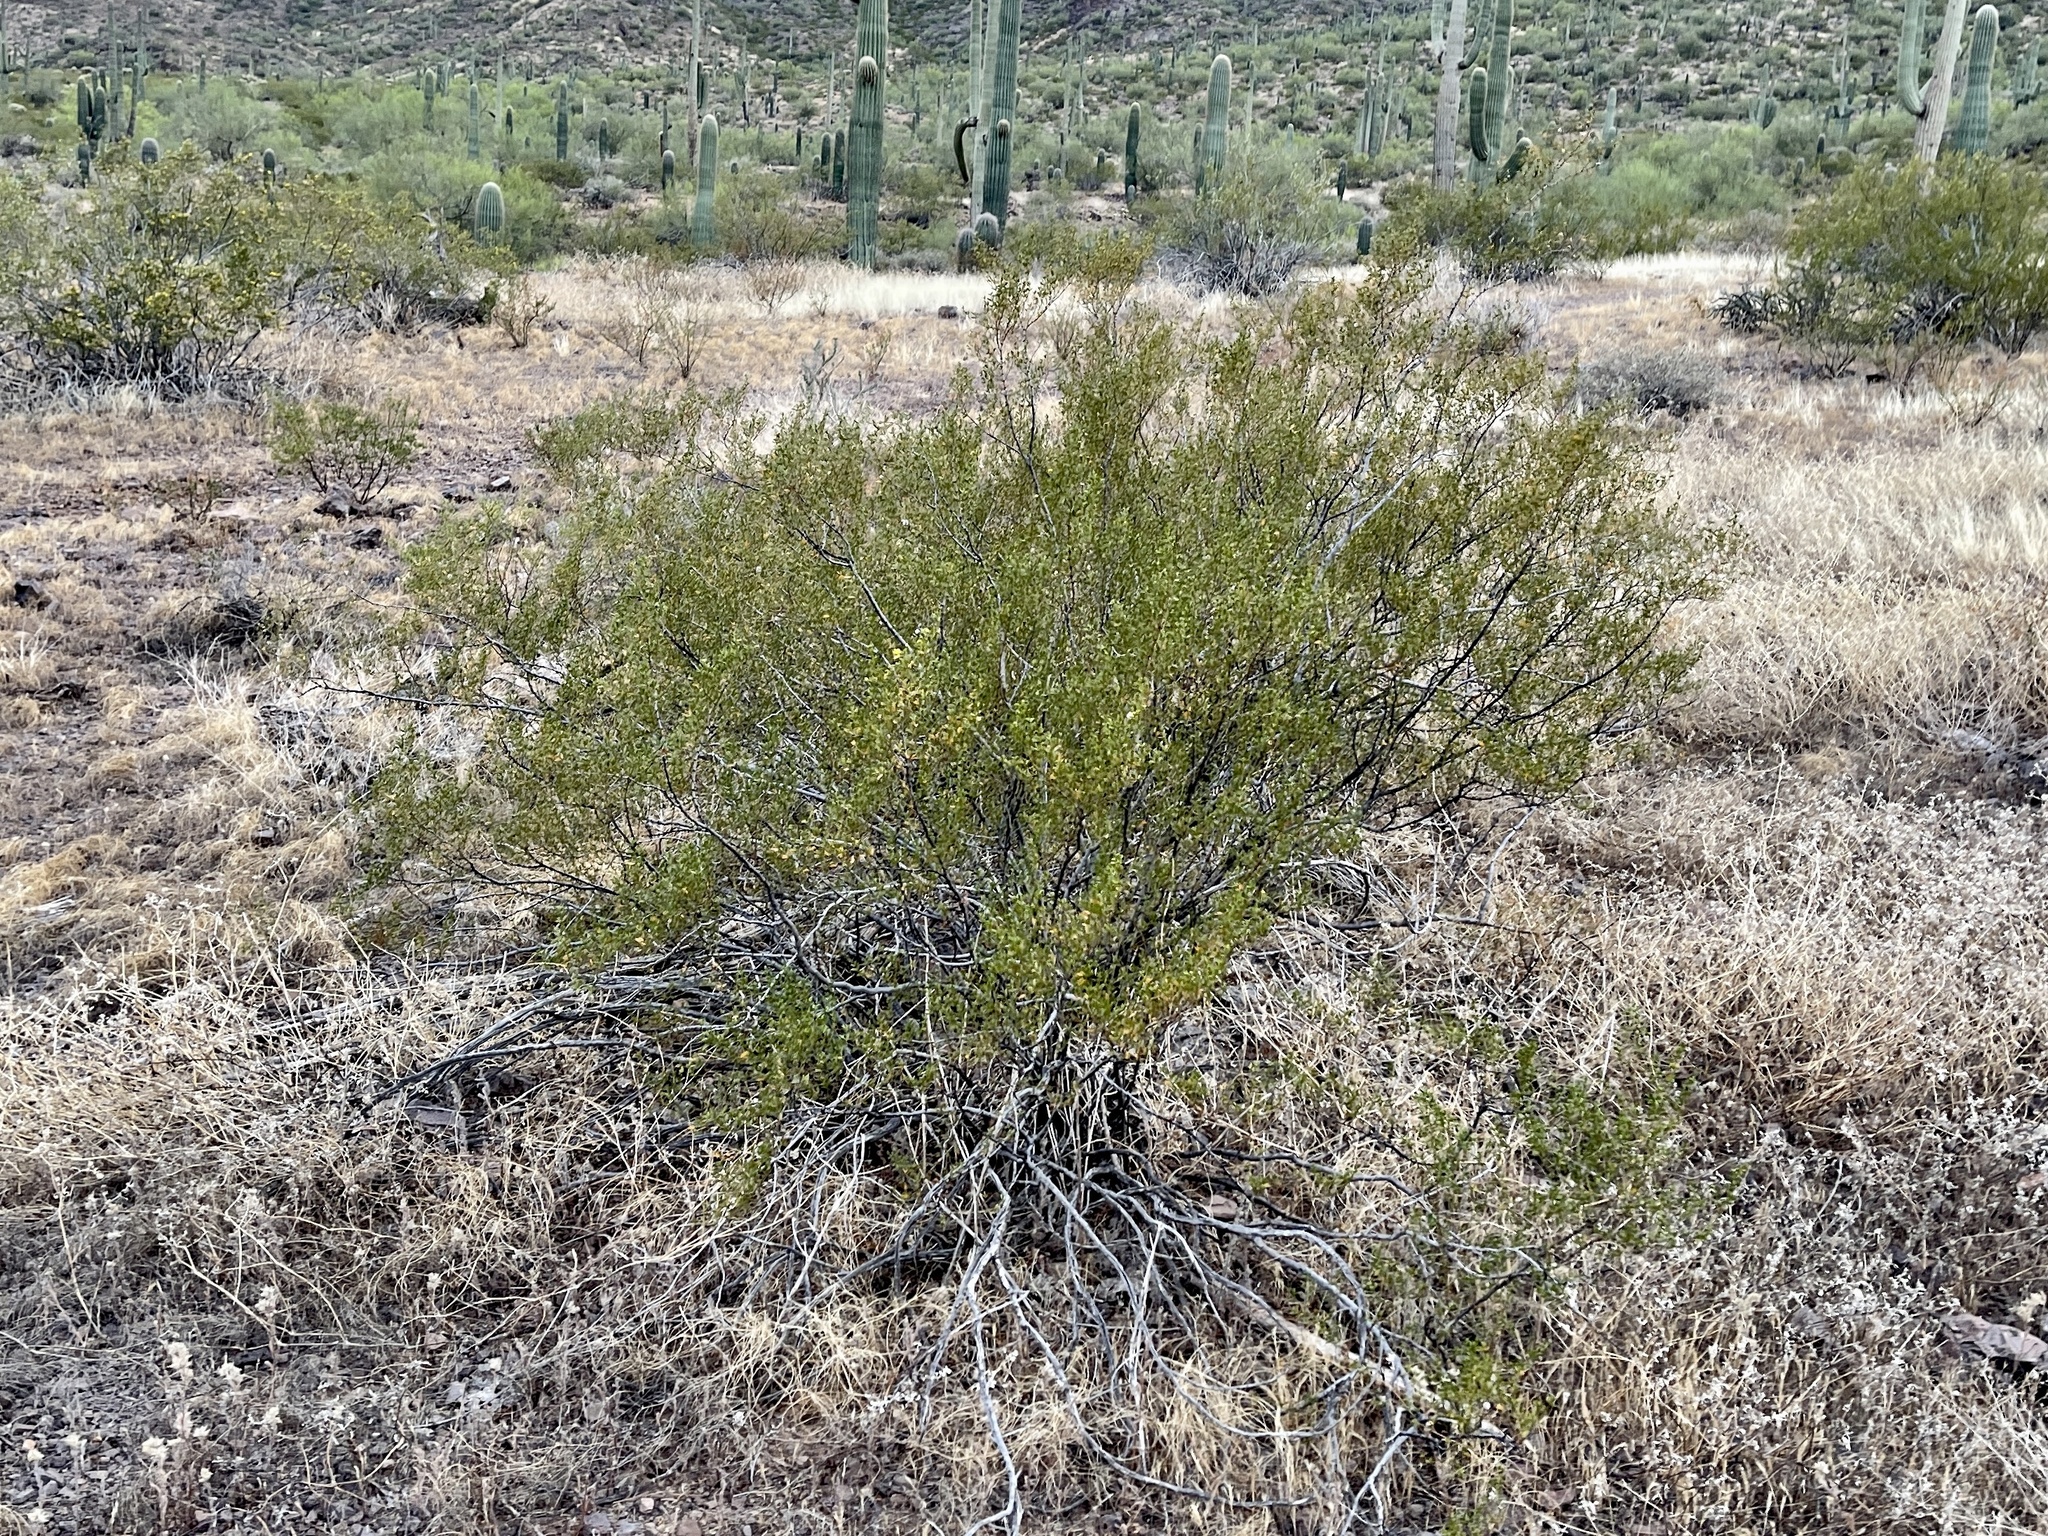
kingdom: Plantae
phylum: Tracheophyta
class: Magnoliopsida
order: Zygophyllales
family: Zygophyllaceae
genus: Larrea
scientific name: Larrea tridentata
